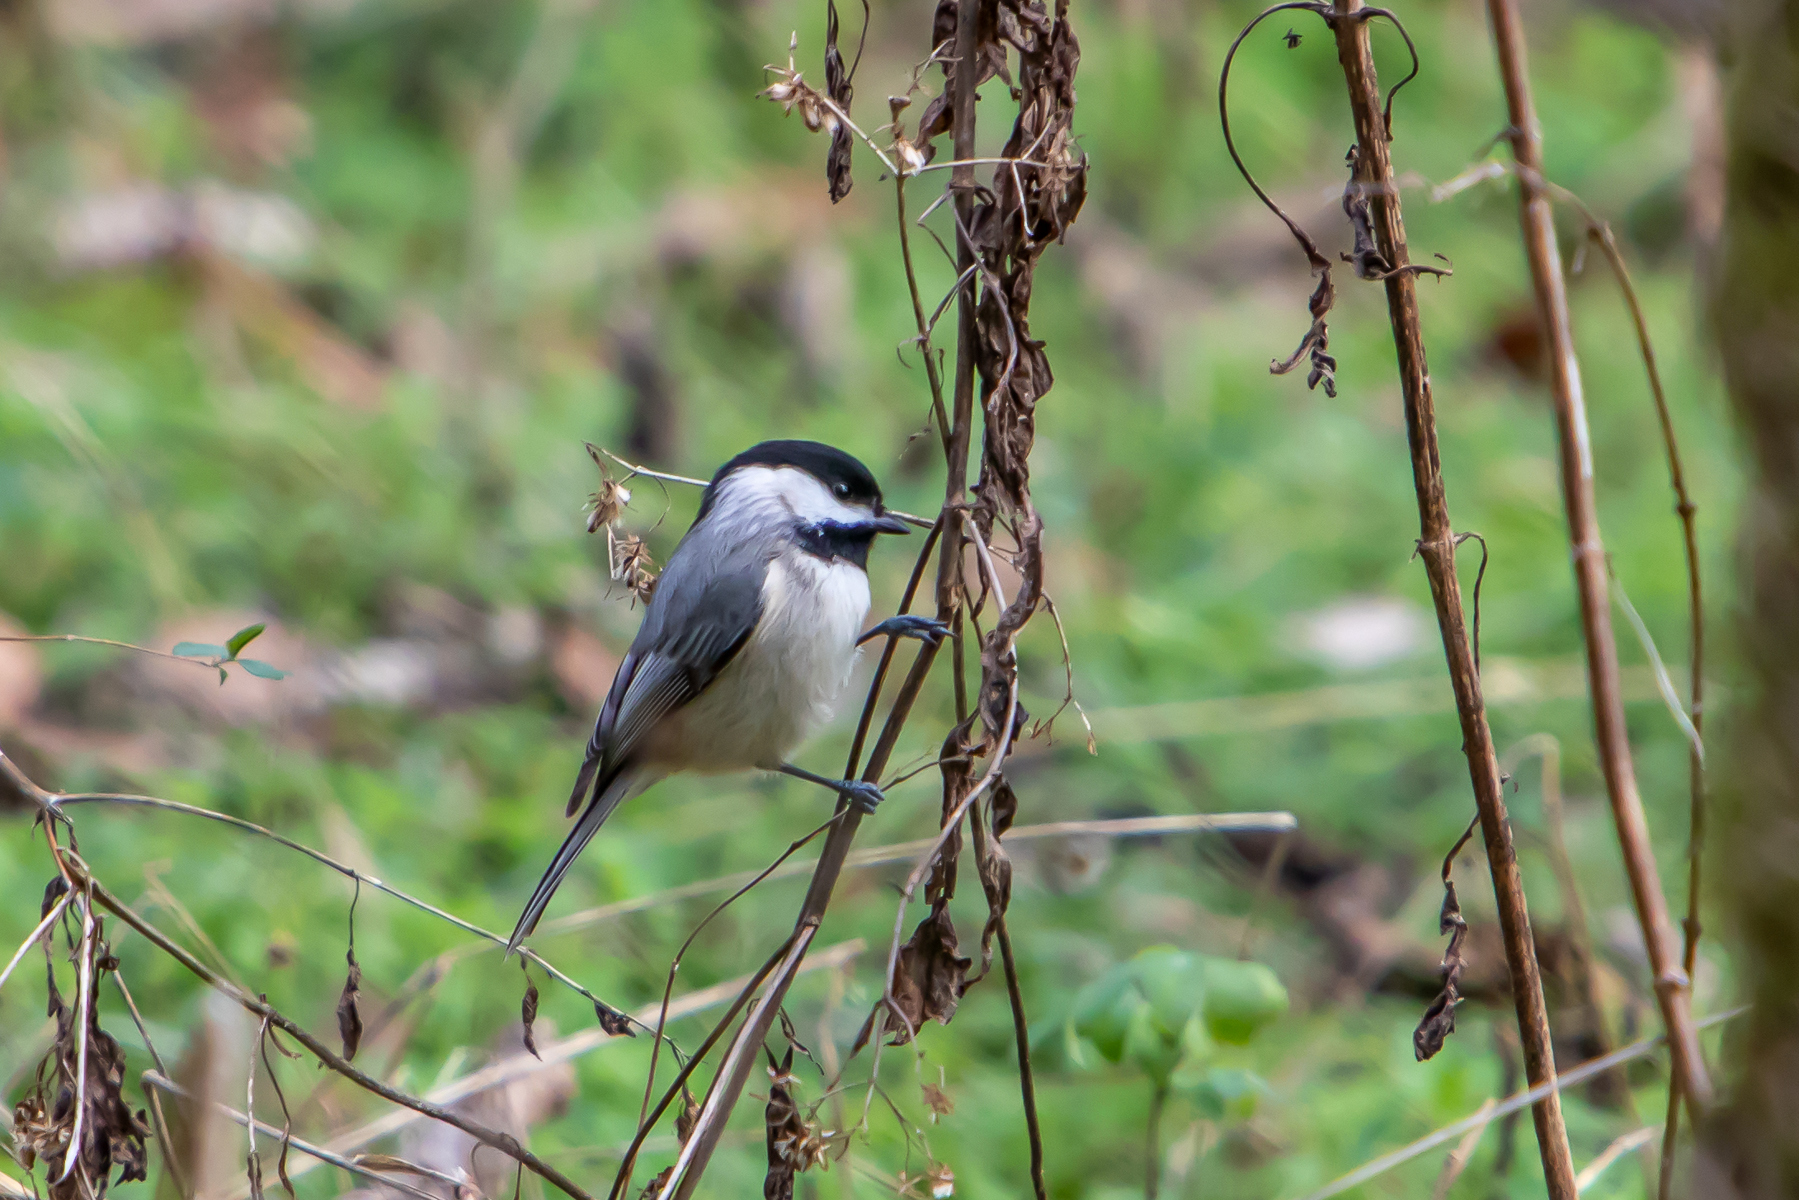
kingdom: Animalia
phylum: Chordata
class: Aves
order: Passeriformes
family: Paridae
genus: Poecile
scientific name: Poecile carolinensis
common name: Carolina chickadee
